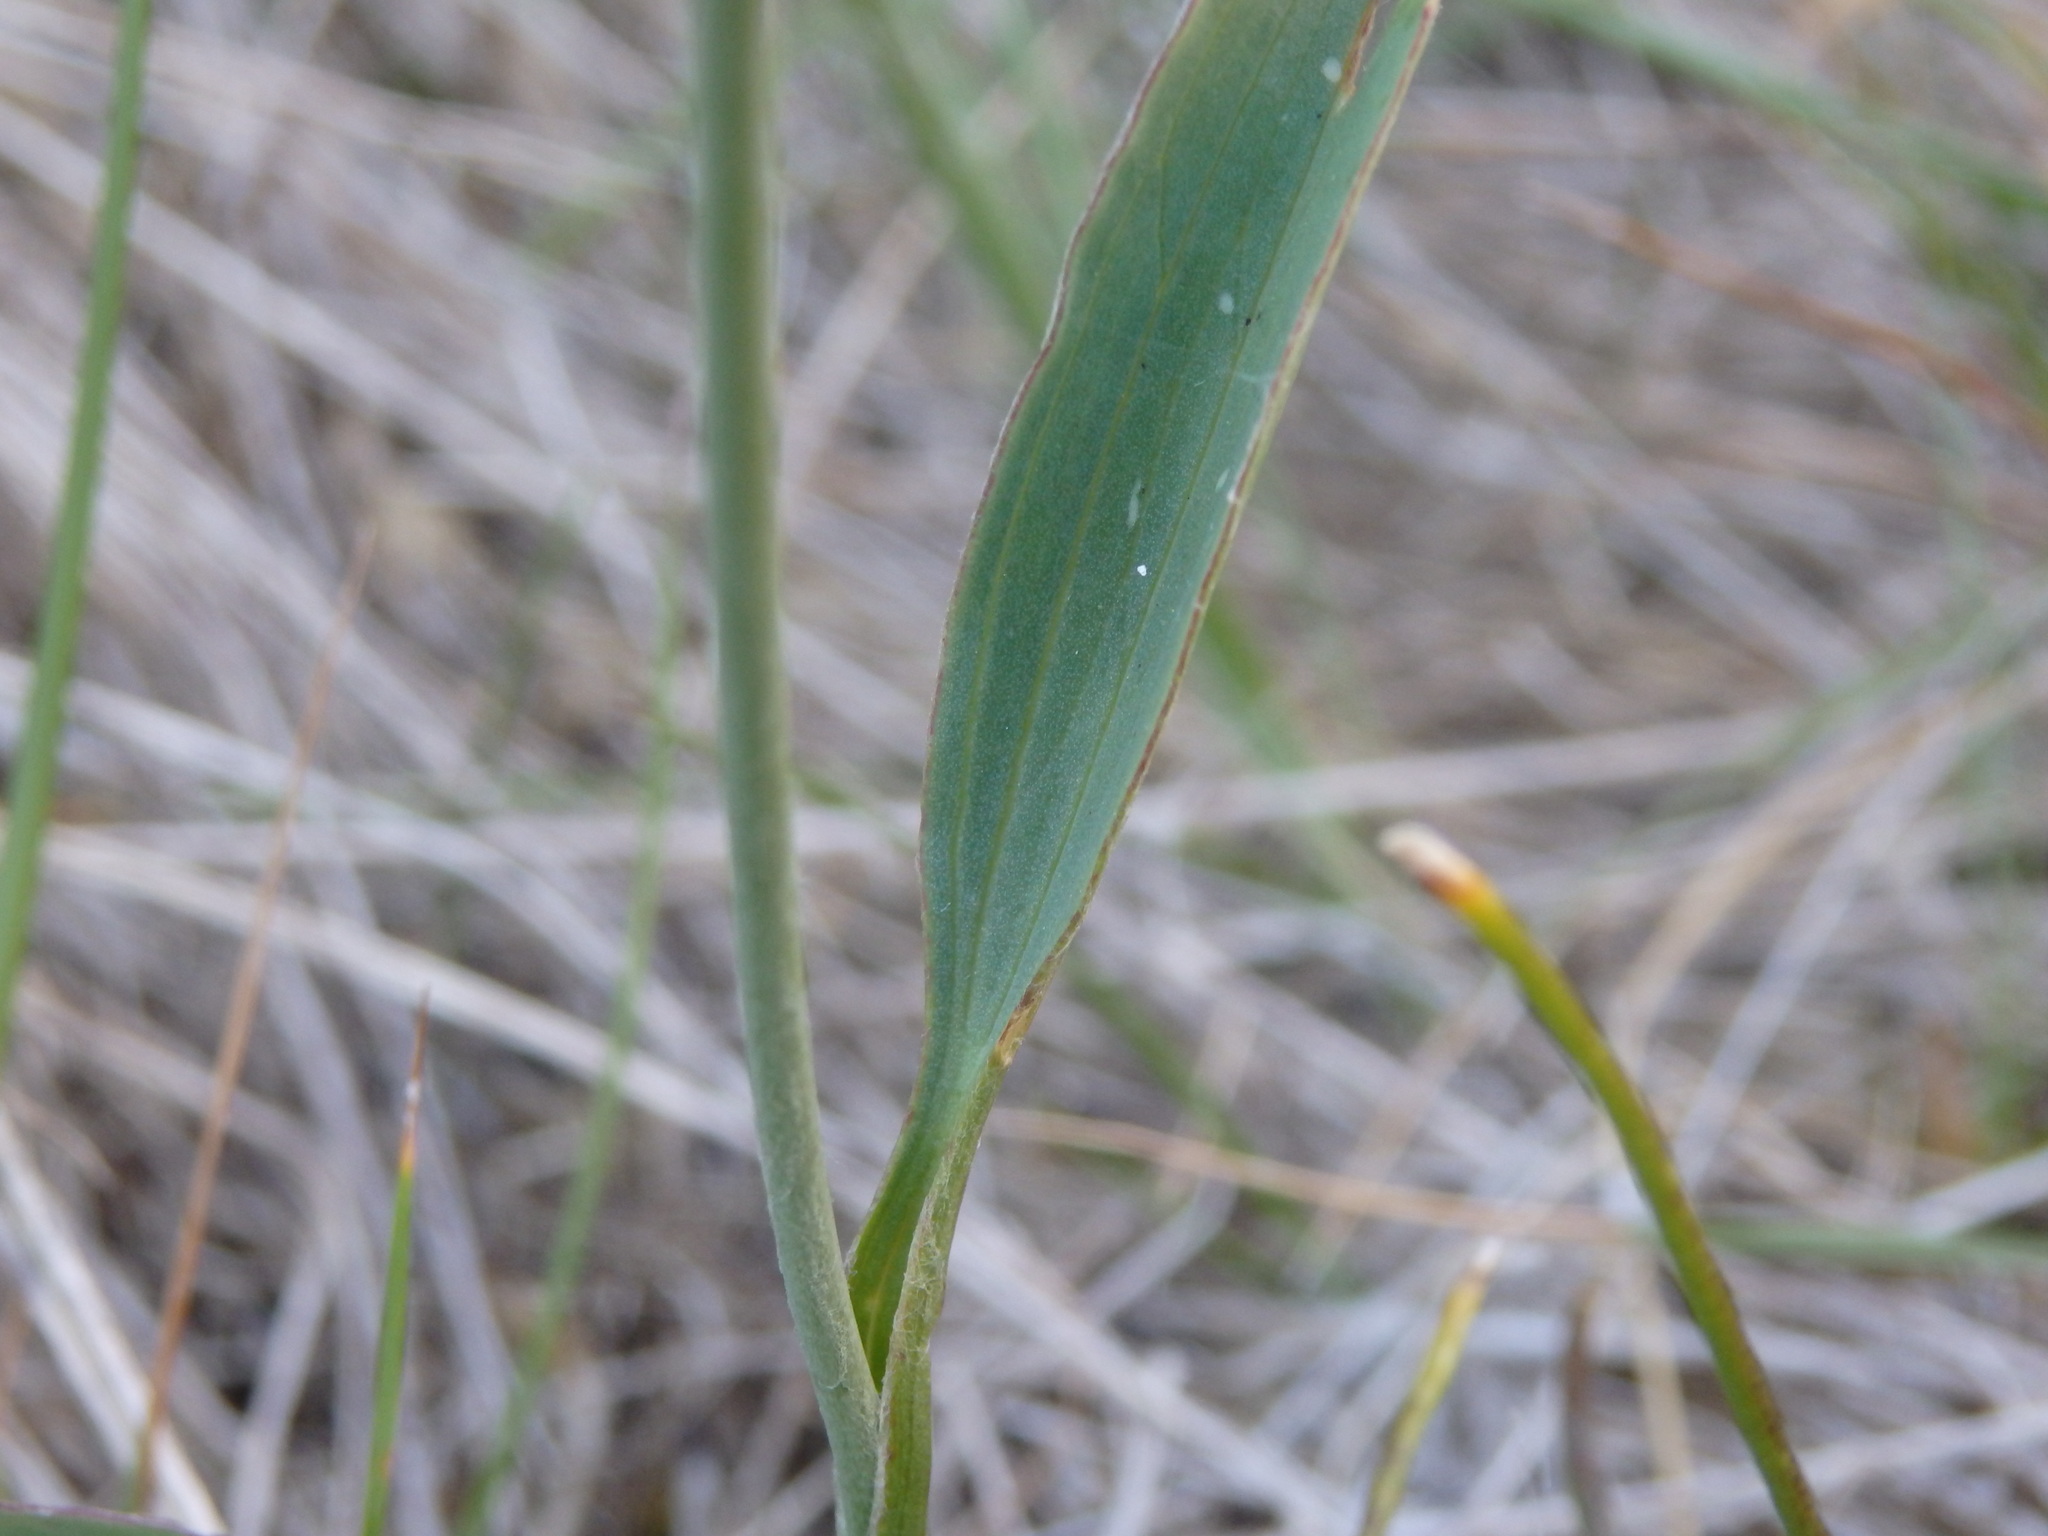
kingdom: Plantae
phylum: Tracheophyta
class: Magnoliopsida
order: Ranunculales
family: Ranunculaceae
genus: Ranunculus
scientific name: Ranunculus bupleuroides
